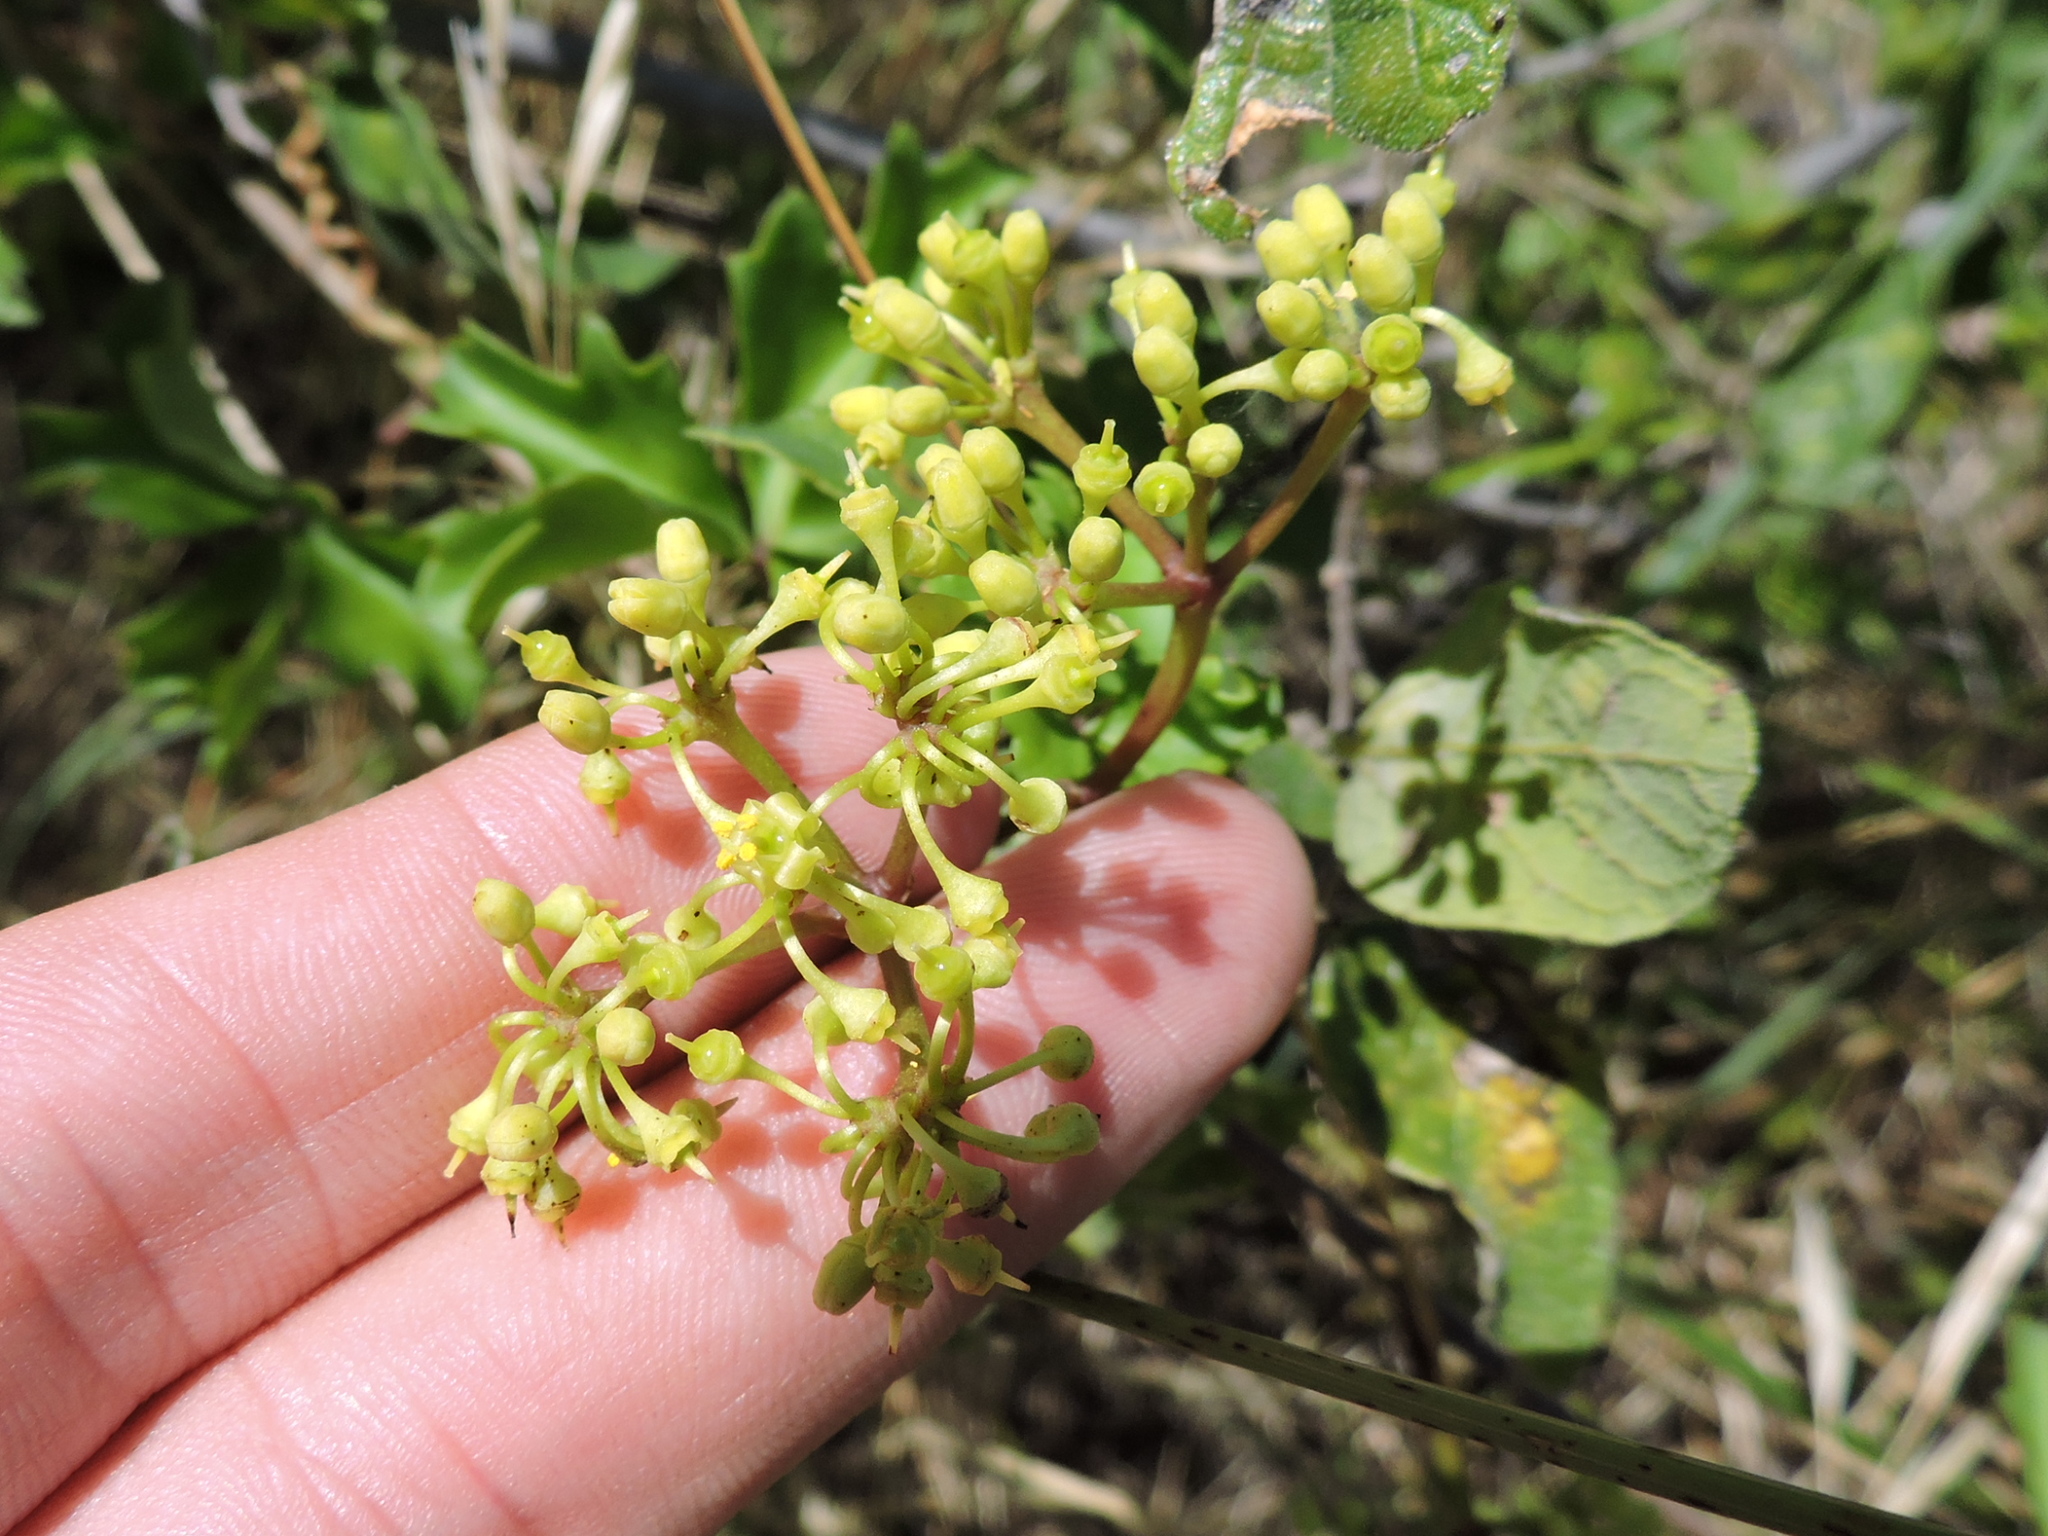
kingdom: Plantae
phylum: Tracheophyta
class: Magnoliopsida
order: Vitales
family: Vitaceae
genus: Cissus
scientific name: Cissus trifoliata
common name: Vine-sorrel
